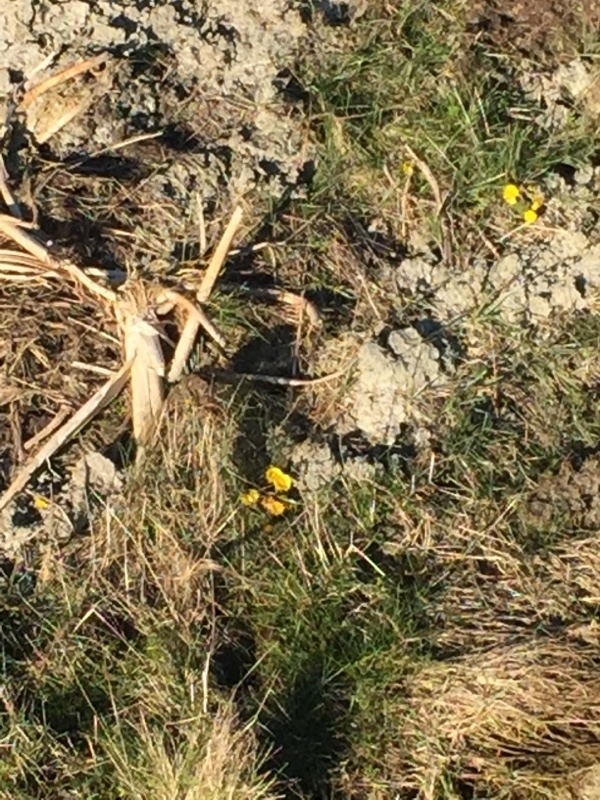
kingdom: Plantae
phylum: Tracheophyta
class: Magnoliopsida
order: Asterales
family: Asteraceae
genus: Tussilago
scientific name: Tussilago farfara
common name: Coltsfoot
